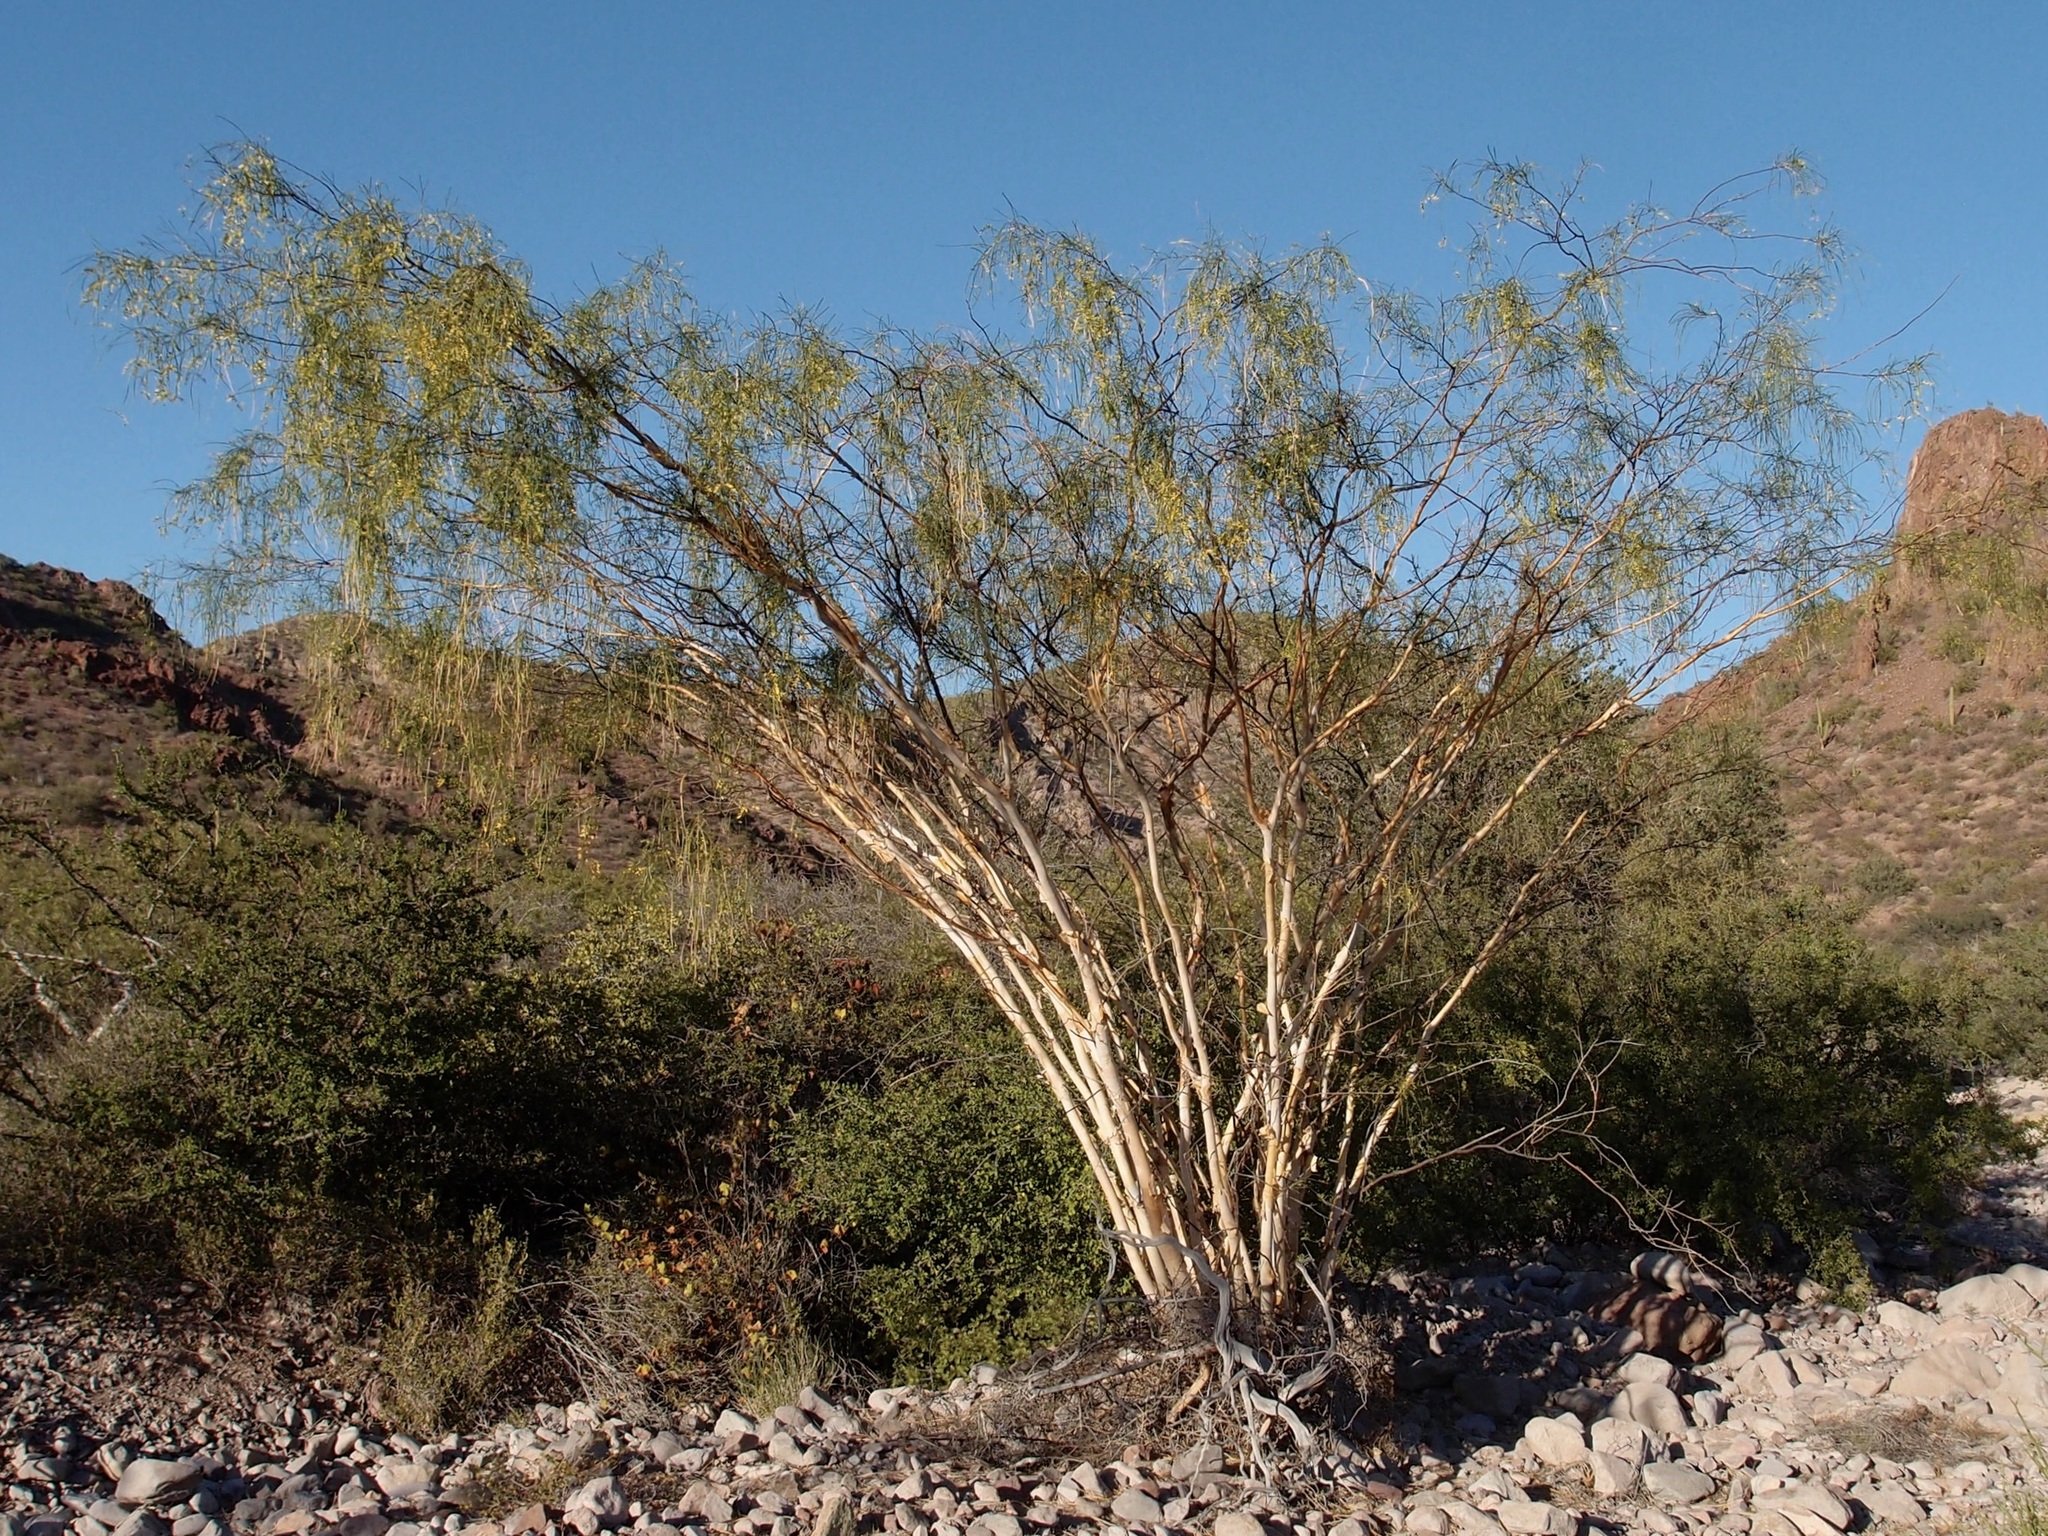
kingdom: Plantae
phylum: Tracheophyta
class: Magnoliopsida
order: Fabales
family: Fabaceae
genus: Mariosousa
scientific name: Mariosousa heterophylla
